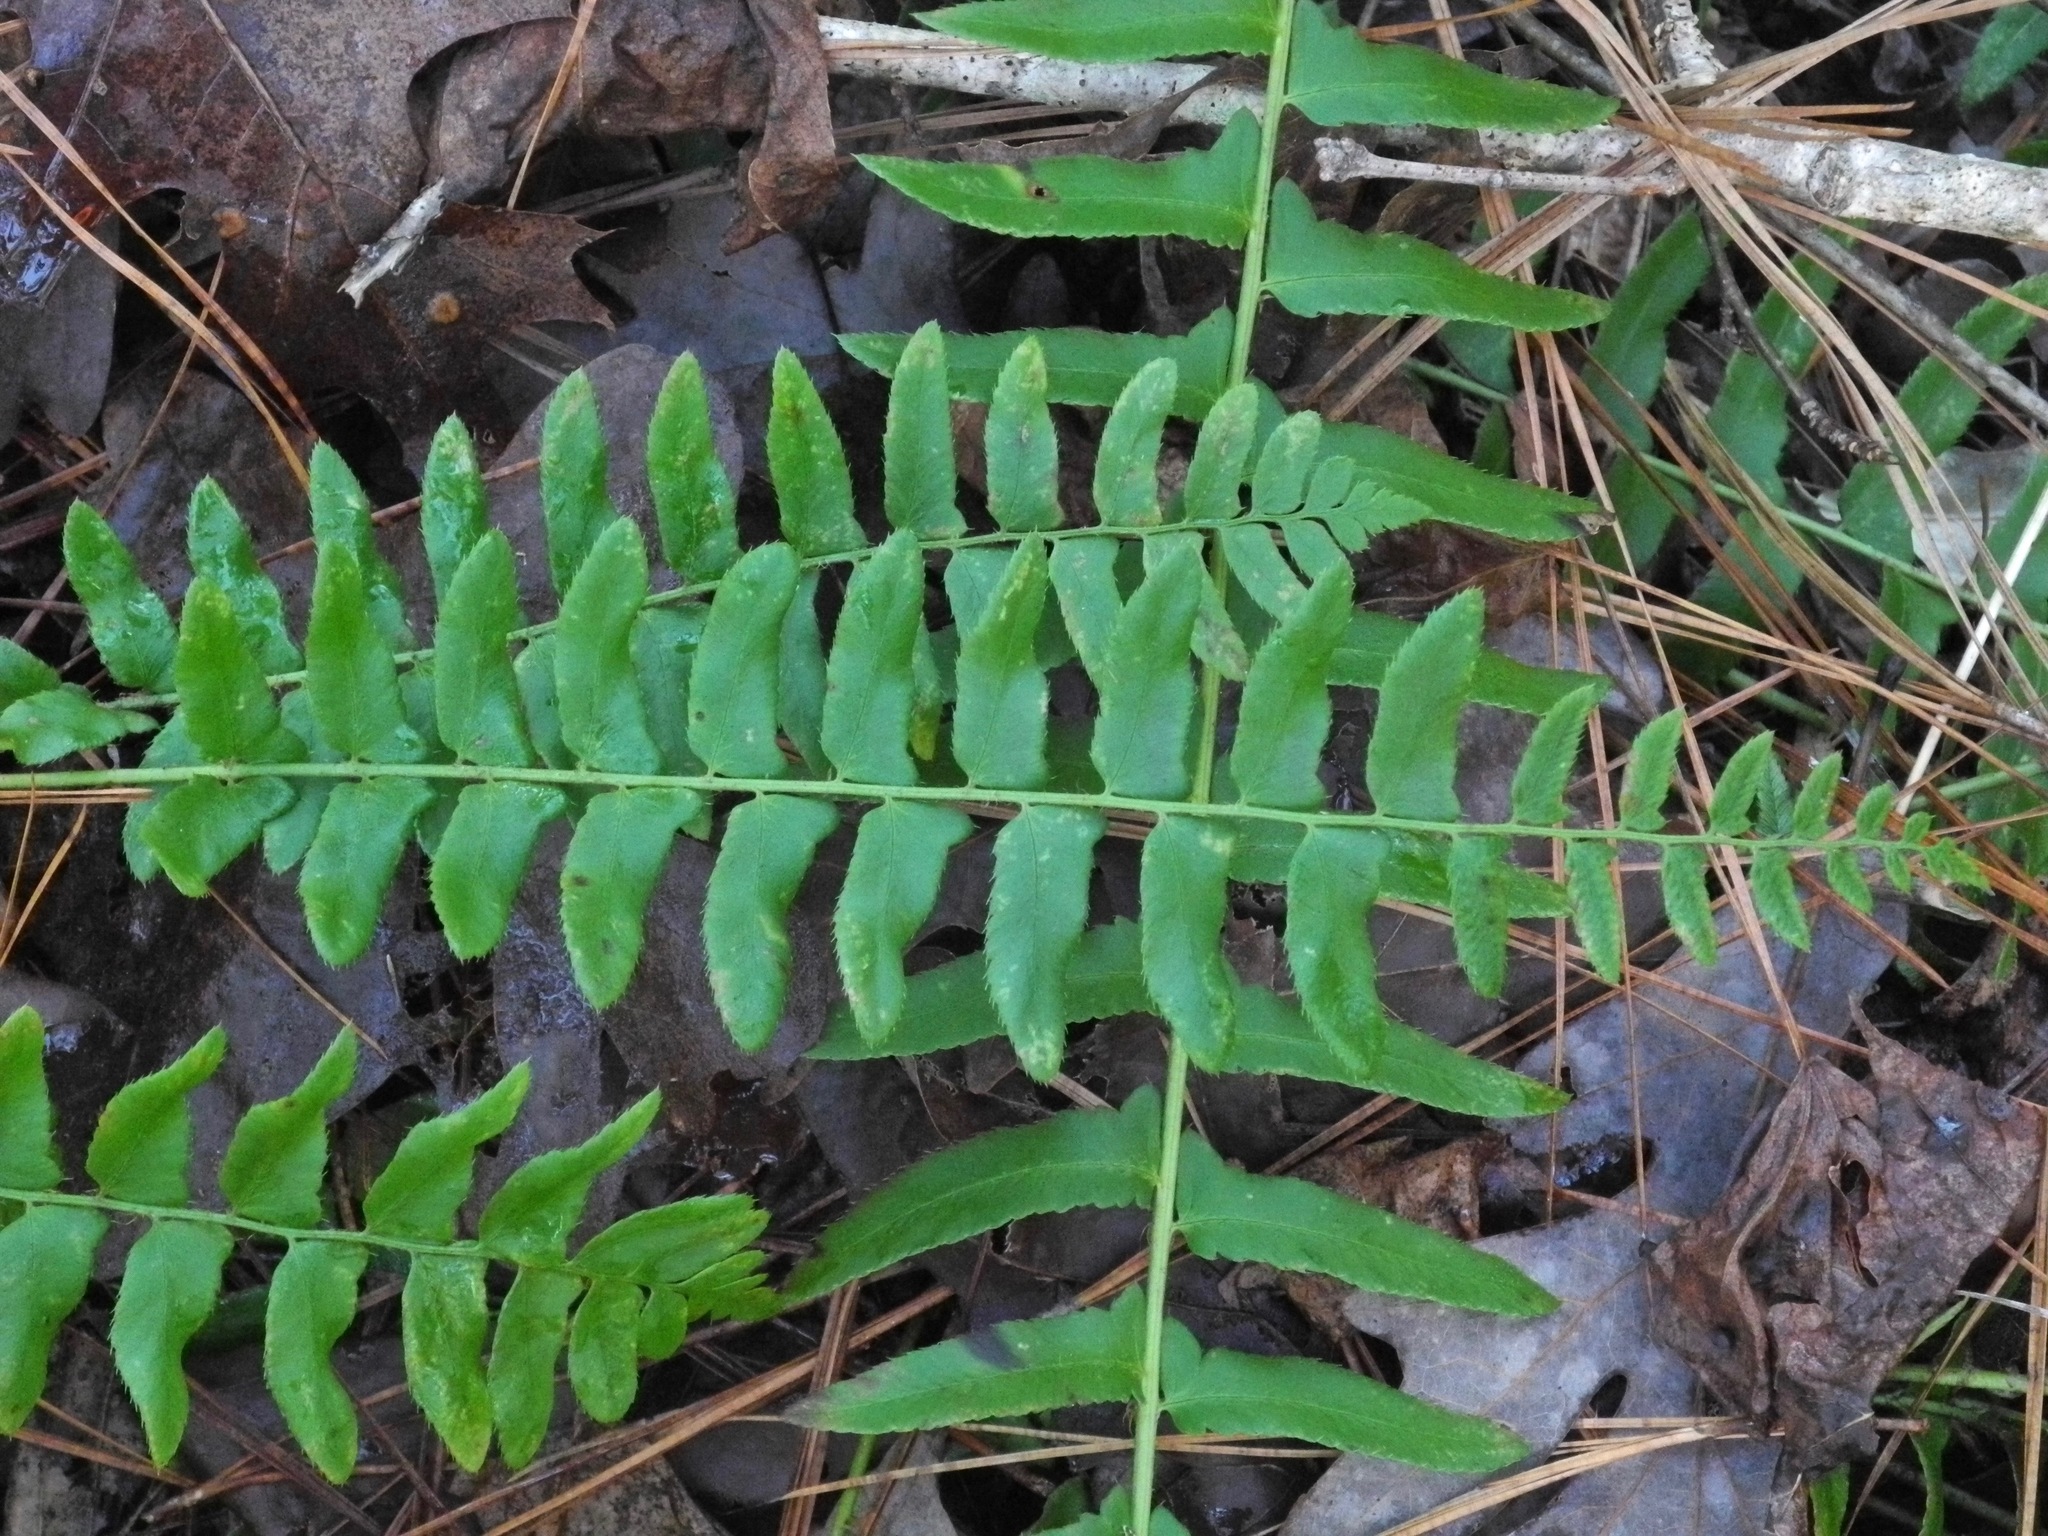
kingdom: Plantae
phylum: Tracheophyta
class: Polypodiopsida
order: Polypodiales
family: Dryopteridaceae
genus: Polystichum
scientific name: Polystichum acrostichoides
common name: Christmas fern
